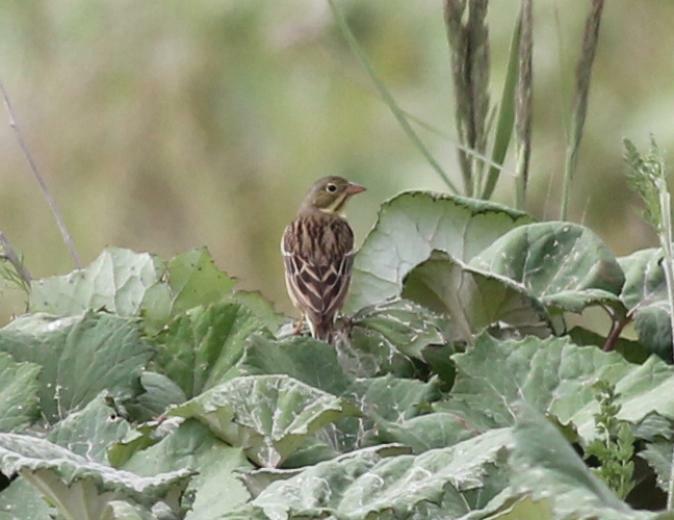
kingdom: Animalia
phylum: Chordata
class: Aves
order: Passeriformes
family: Emberizidae
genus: Emberiza
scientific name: Emberiza hortulana
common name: Ortolan bunting
